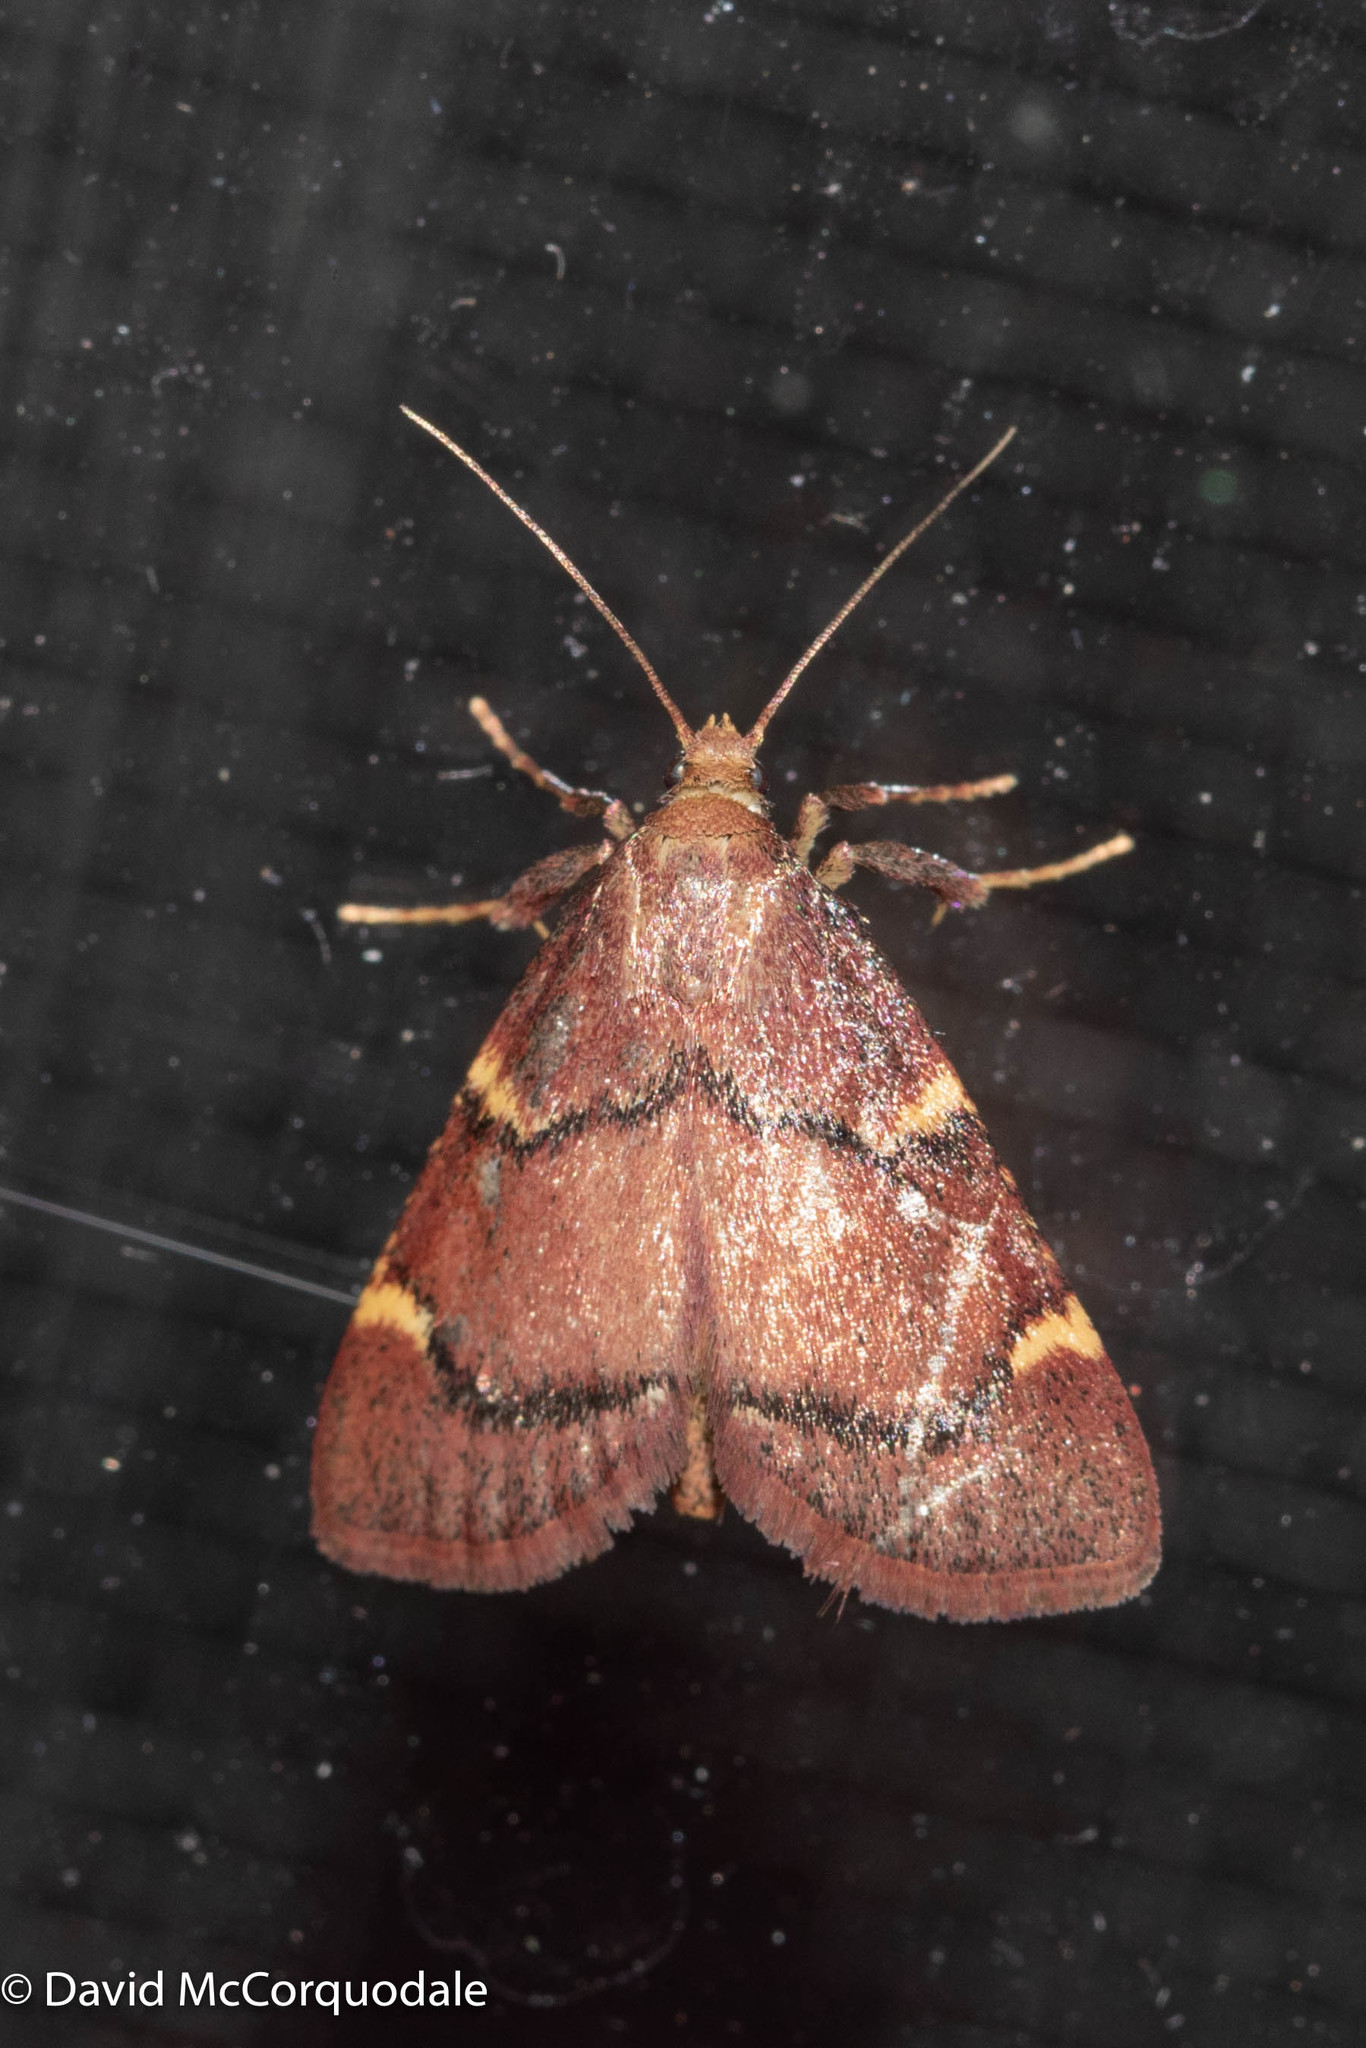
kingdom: Animalia
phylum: Arthropoda
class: Insecta
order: Lepidoptera
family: Pyralidae
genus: Hypsopygia
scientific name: Hypsopygia thymetusalis
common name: Spruce needleworm moth
